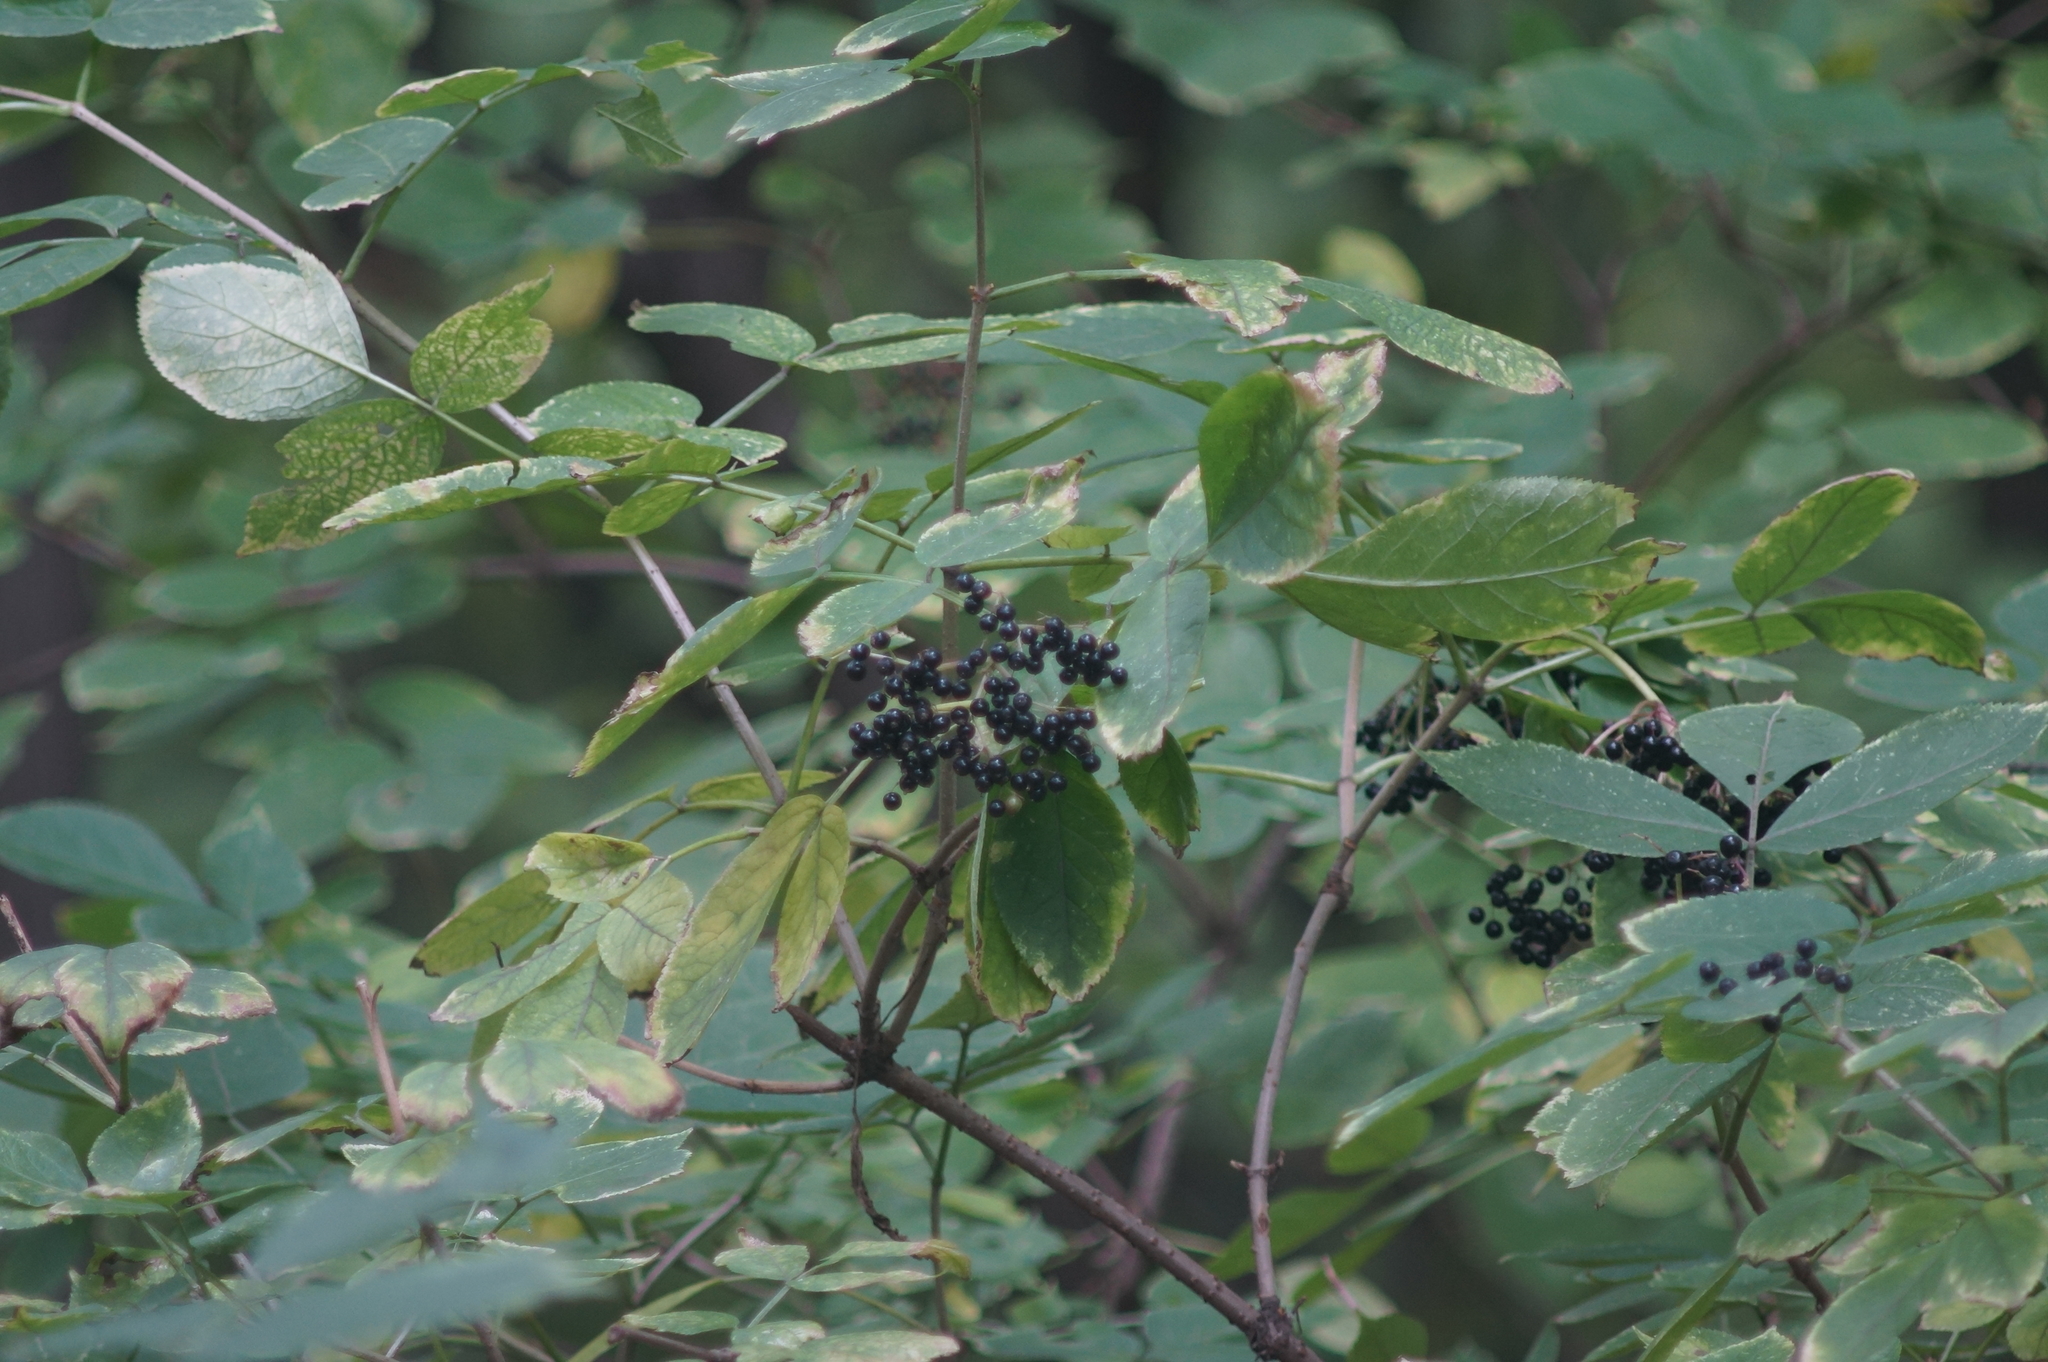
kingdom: Plantae
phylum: Tracheophyta
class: Magnoliopsida
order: Dipsacales
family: Viburnaceae
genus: Sambucus
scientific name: Sambucus nigra
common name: Elder
